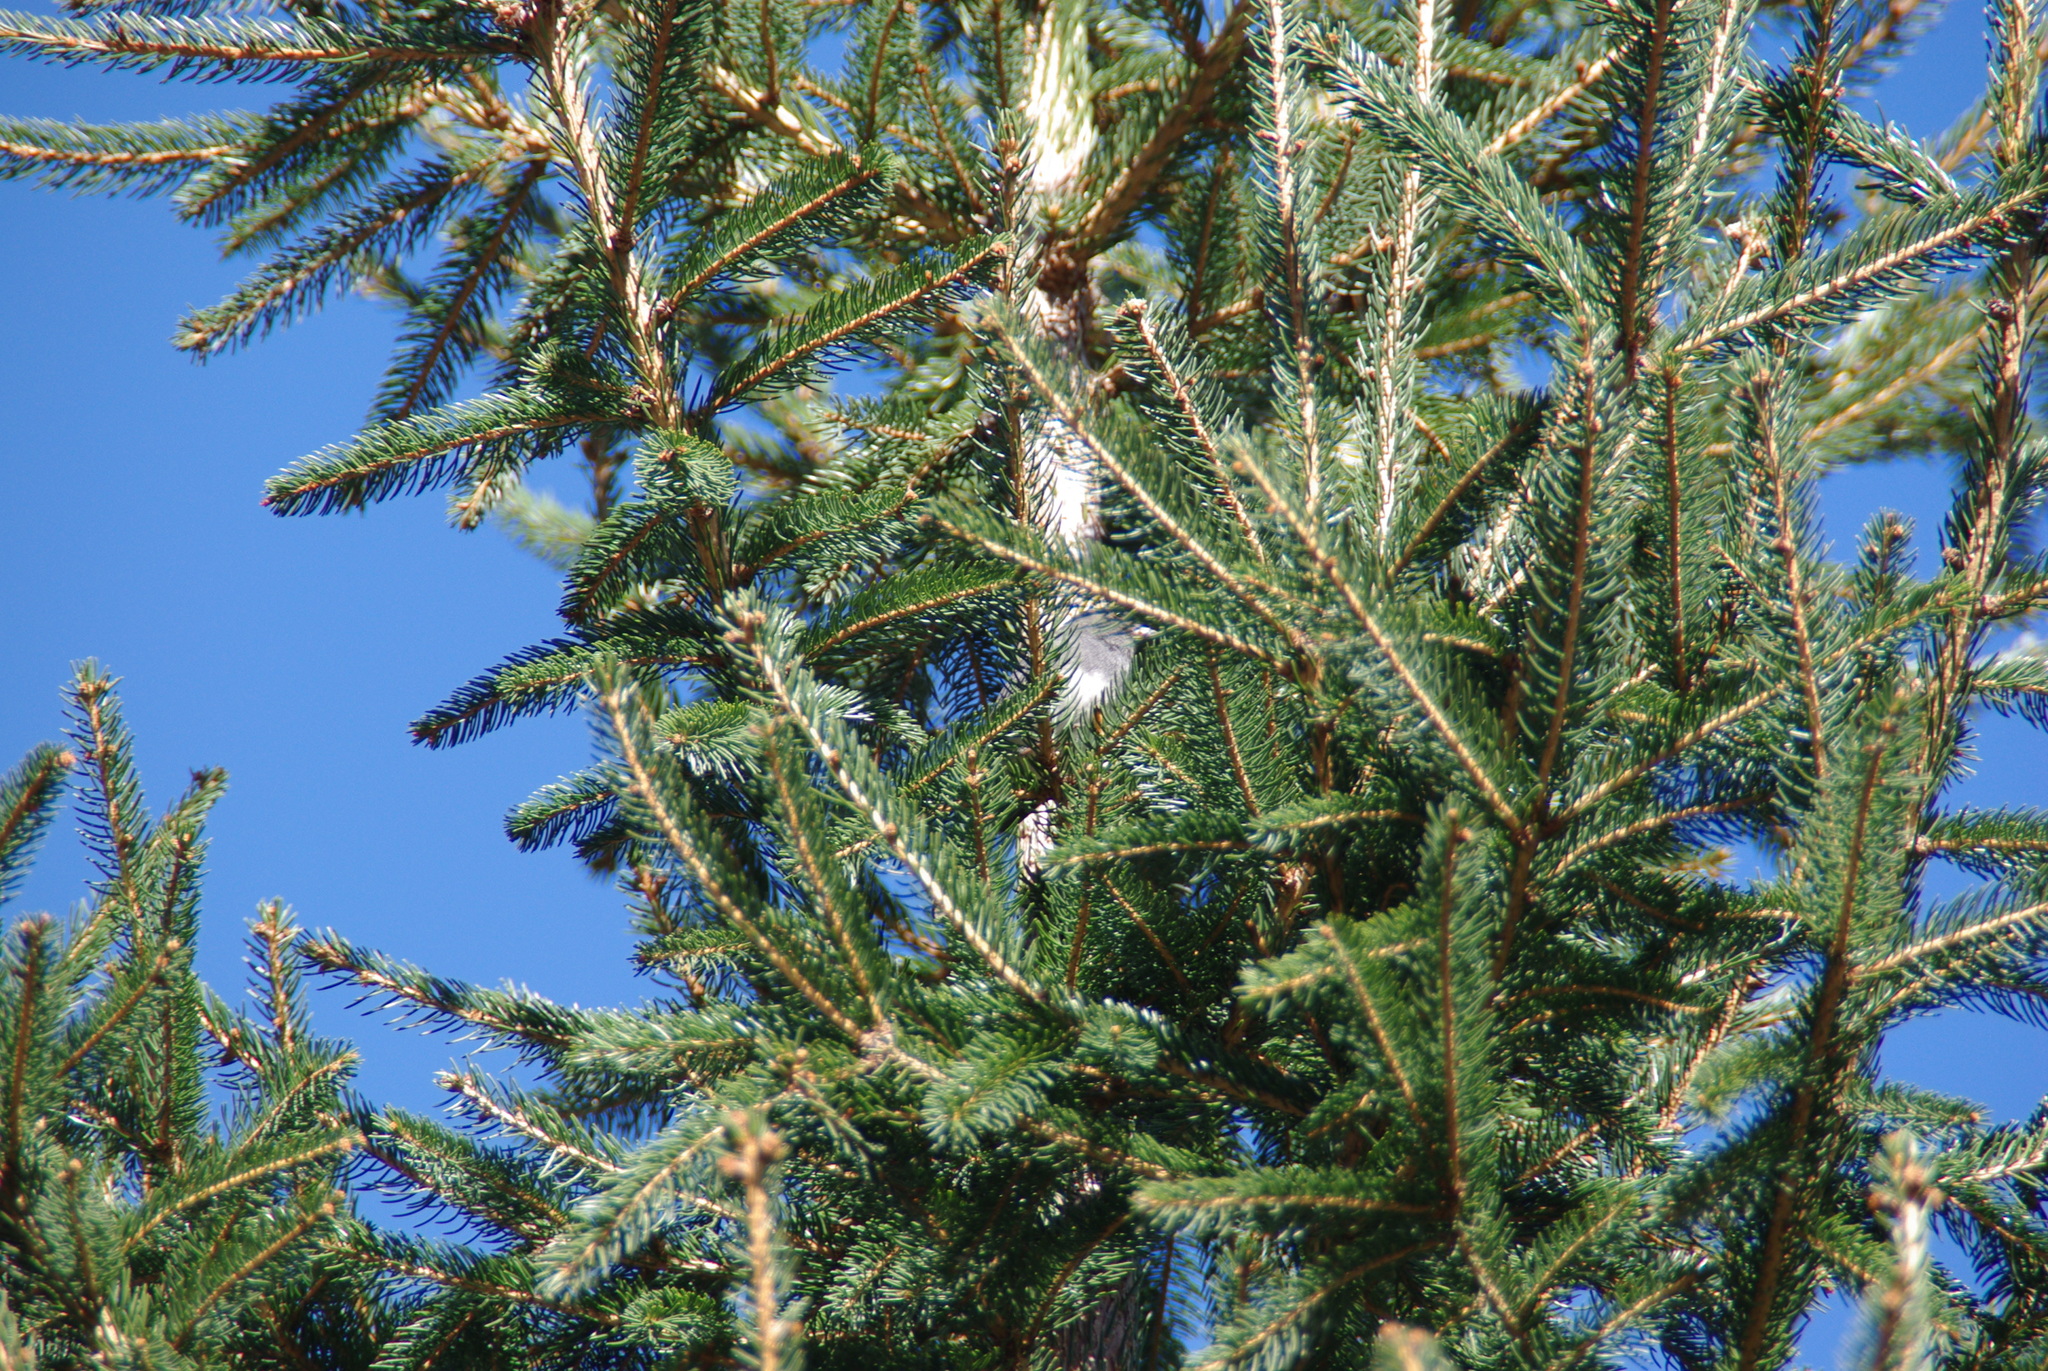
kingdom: Animalia
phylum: Chordata
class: Aves
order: Passeriformes
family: Passerellidae
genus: Junco
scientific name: Junco hyemalis
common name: Dark-eyed junco
